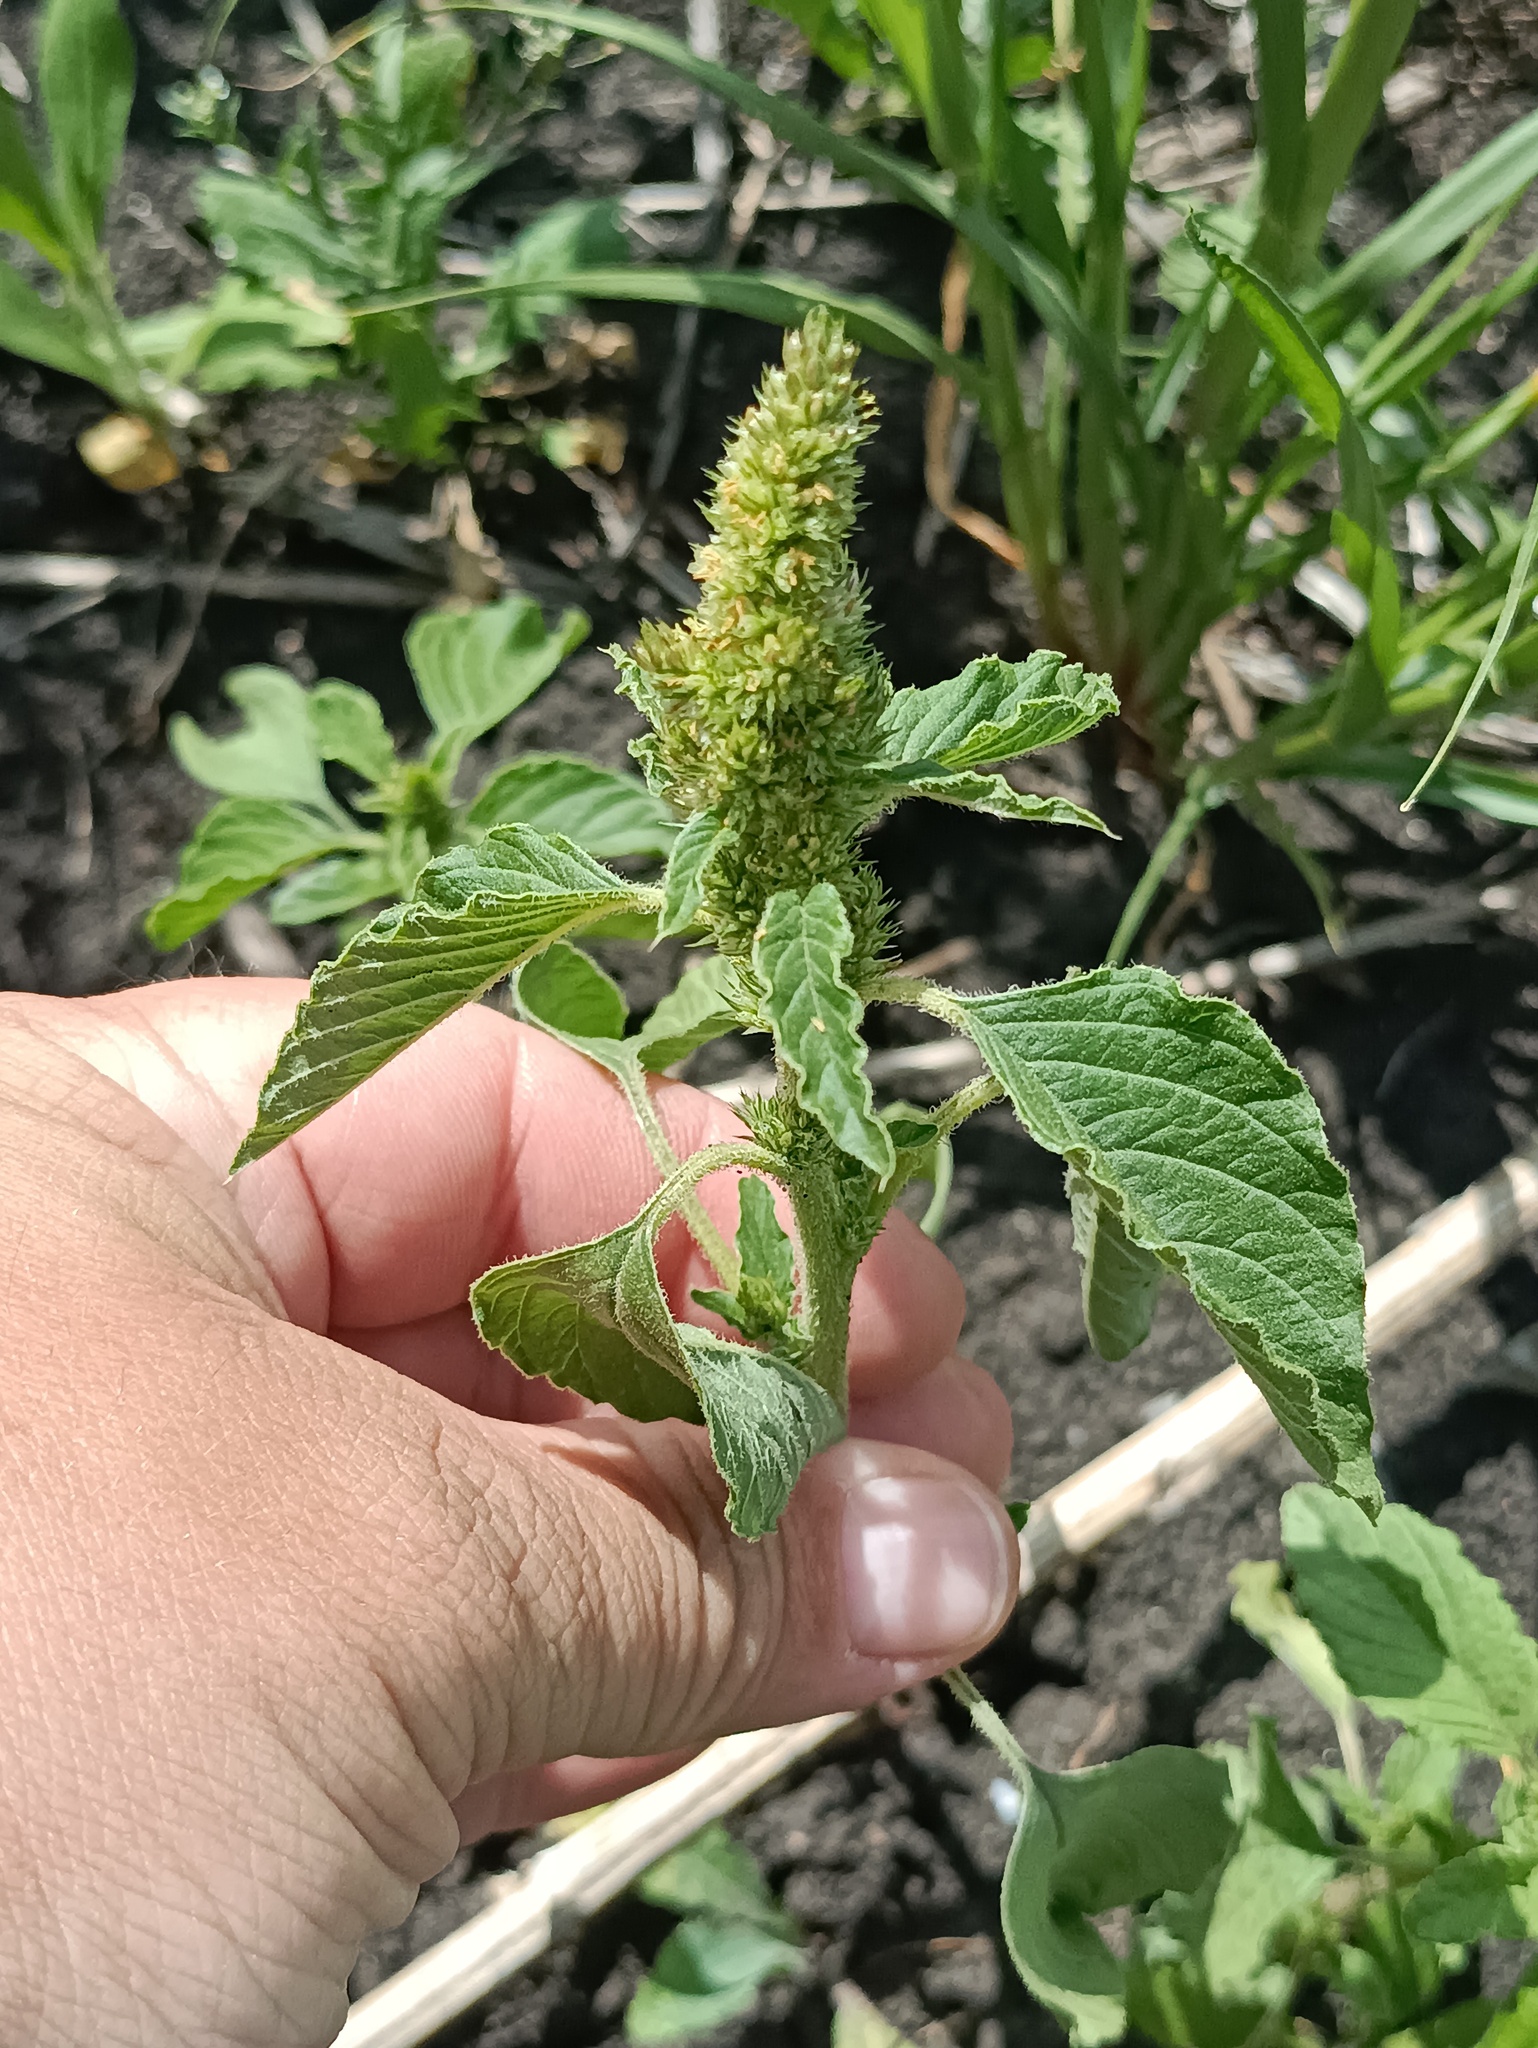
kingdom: Plantae
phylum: Tracheophyta
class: Magnoliopsida
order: Caryophyllales
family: Amaranthaceae
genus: Amaranthus
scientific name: Amaranthus retroflexus
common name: Redroot amaranth
